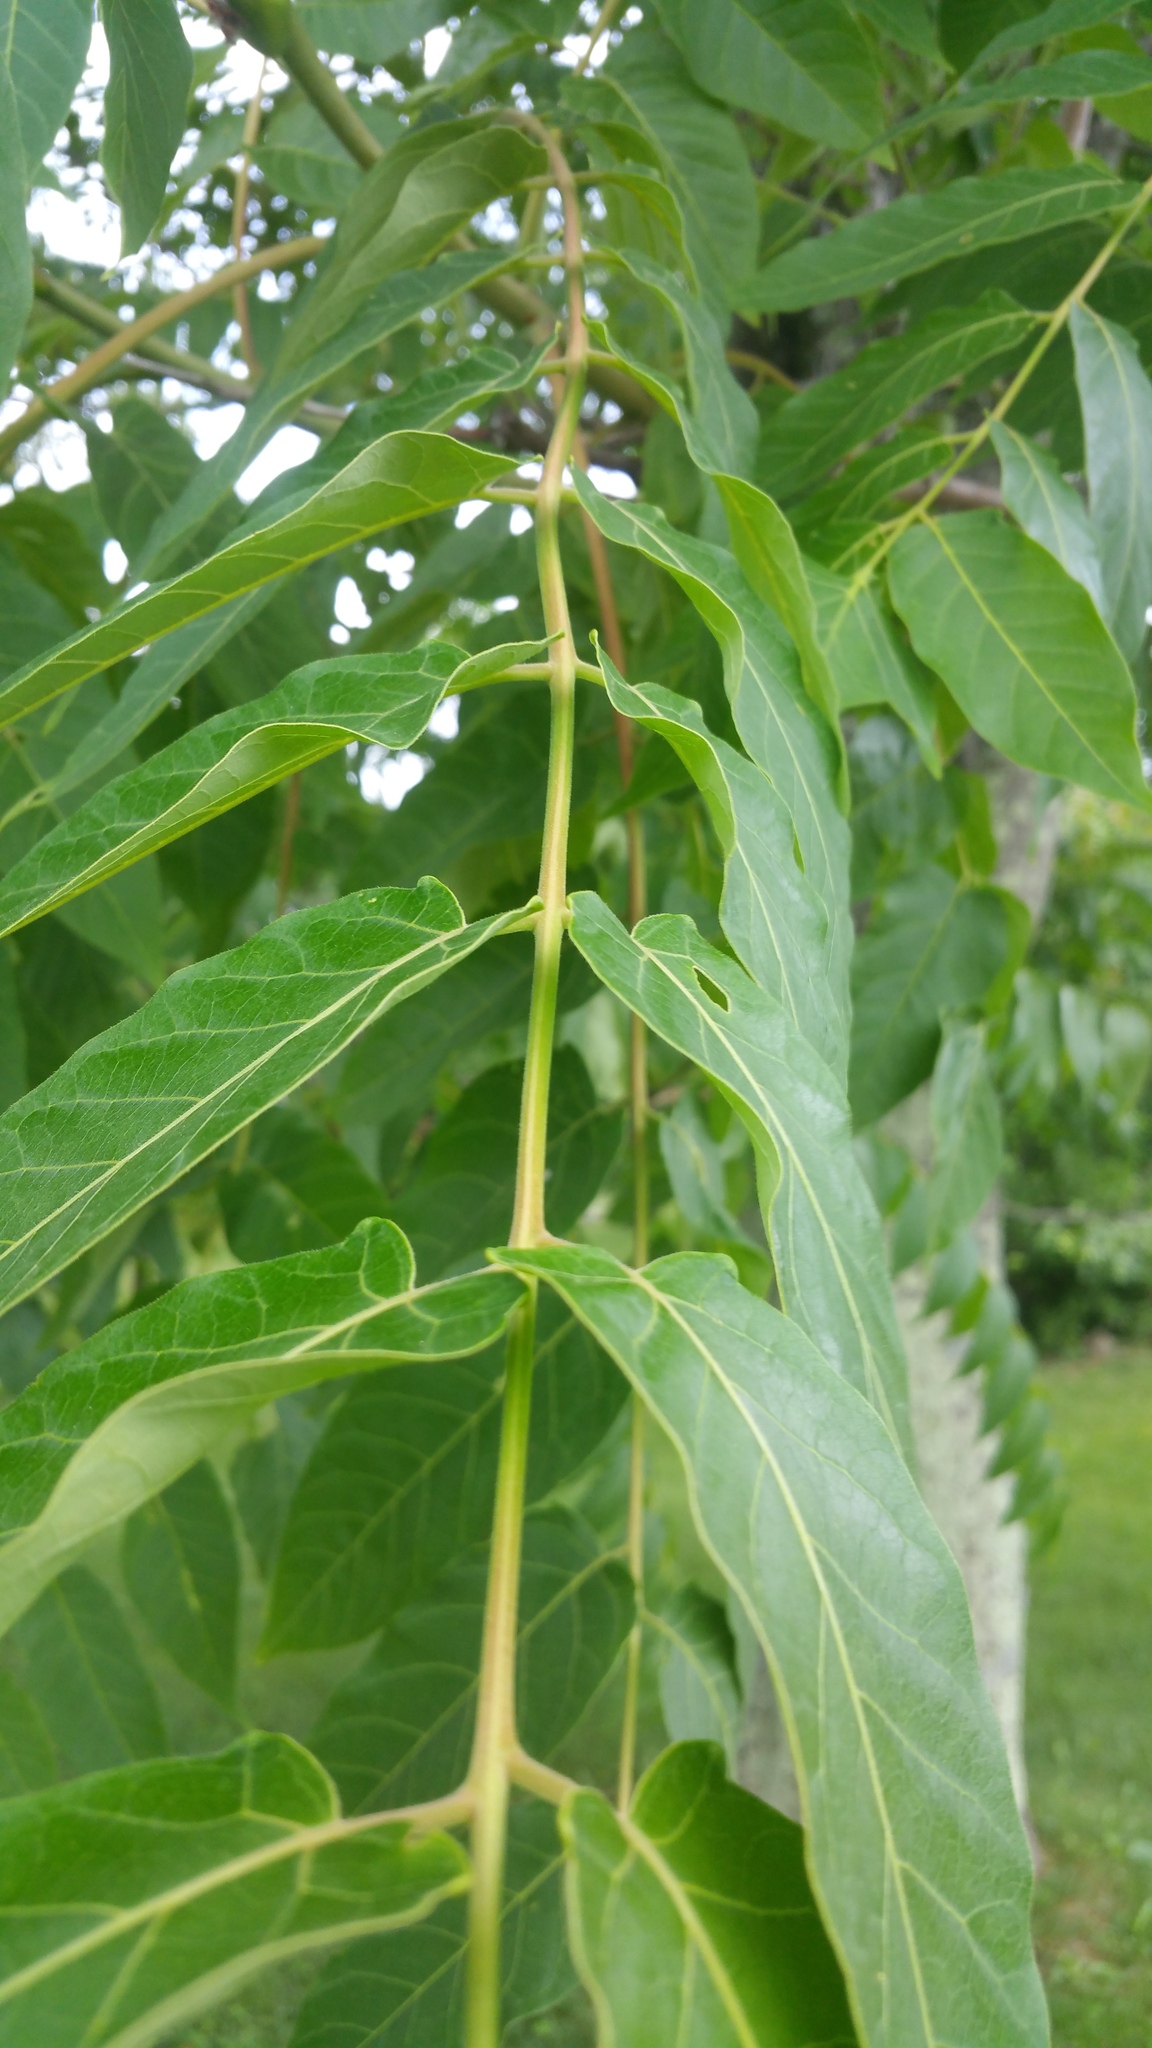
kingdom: Plantae
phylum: Tracheophyta
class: Magnoliopsida
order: Sapindales
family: Simaroubaceae
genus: Ailanthus
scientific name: Ailanthus altissima
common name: Tree-of-heaven
